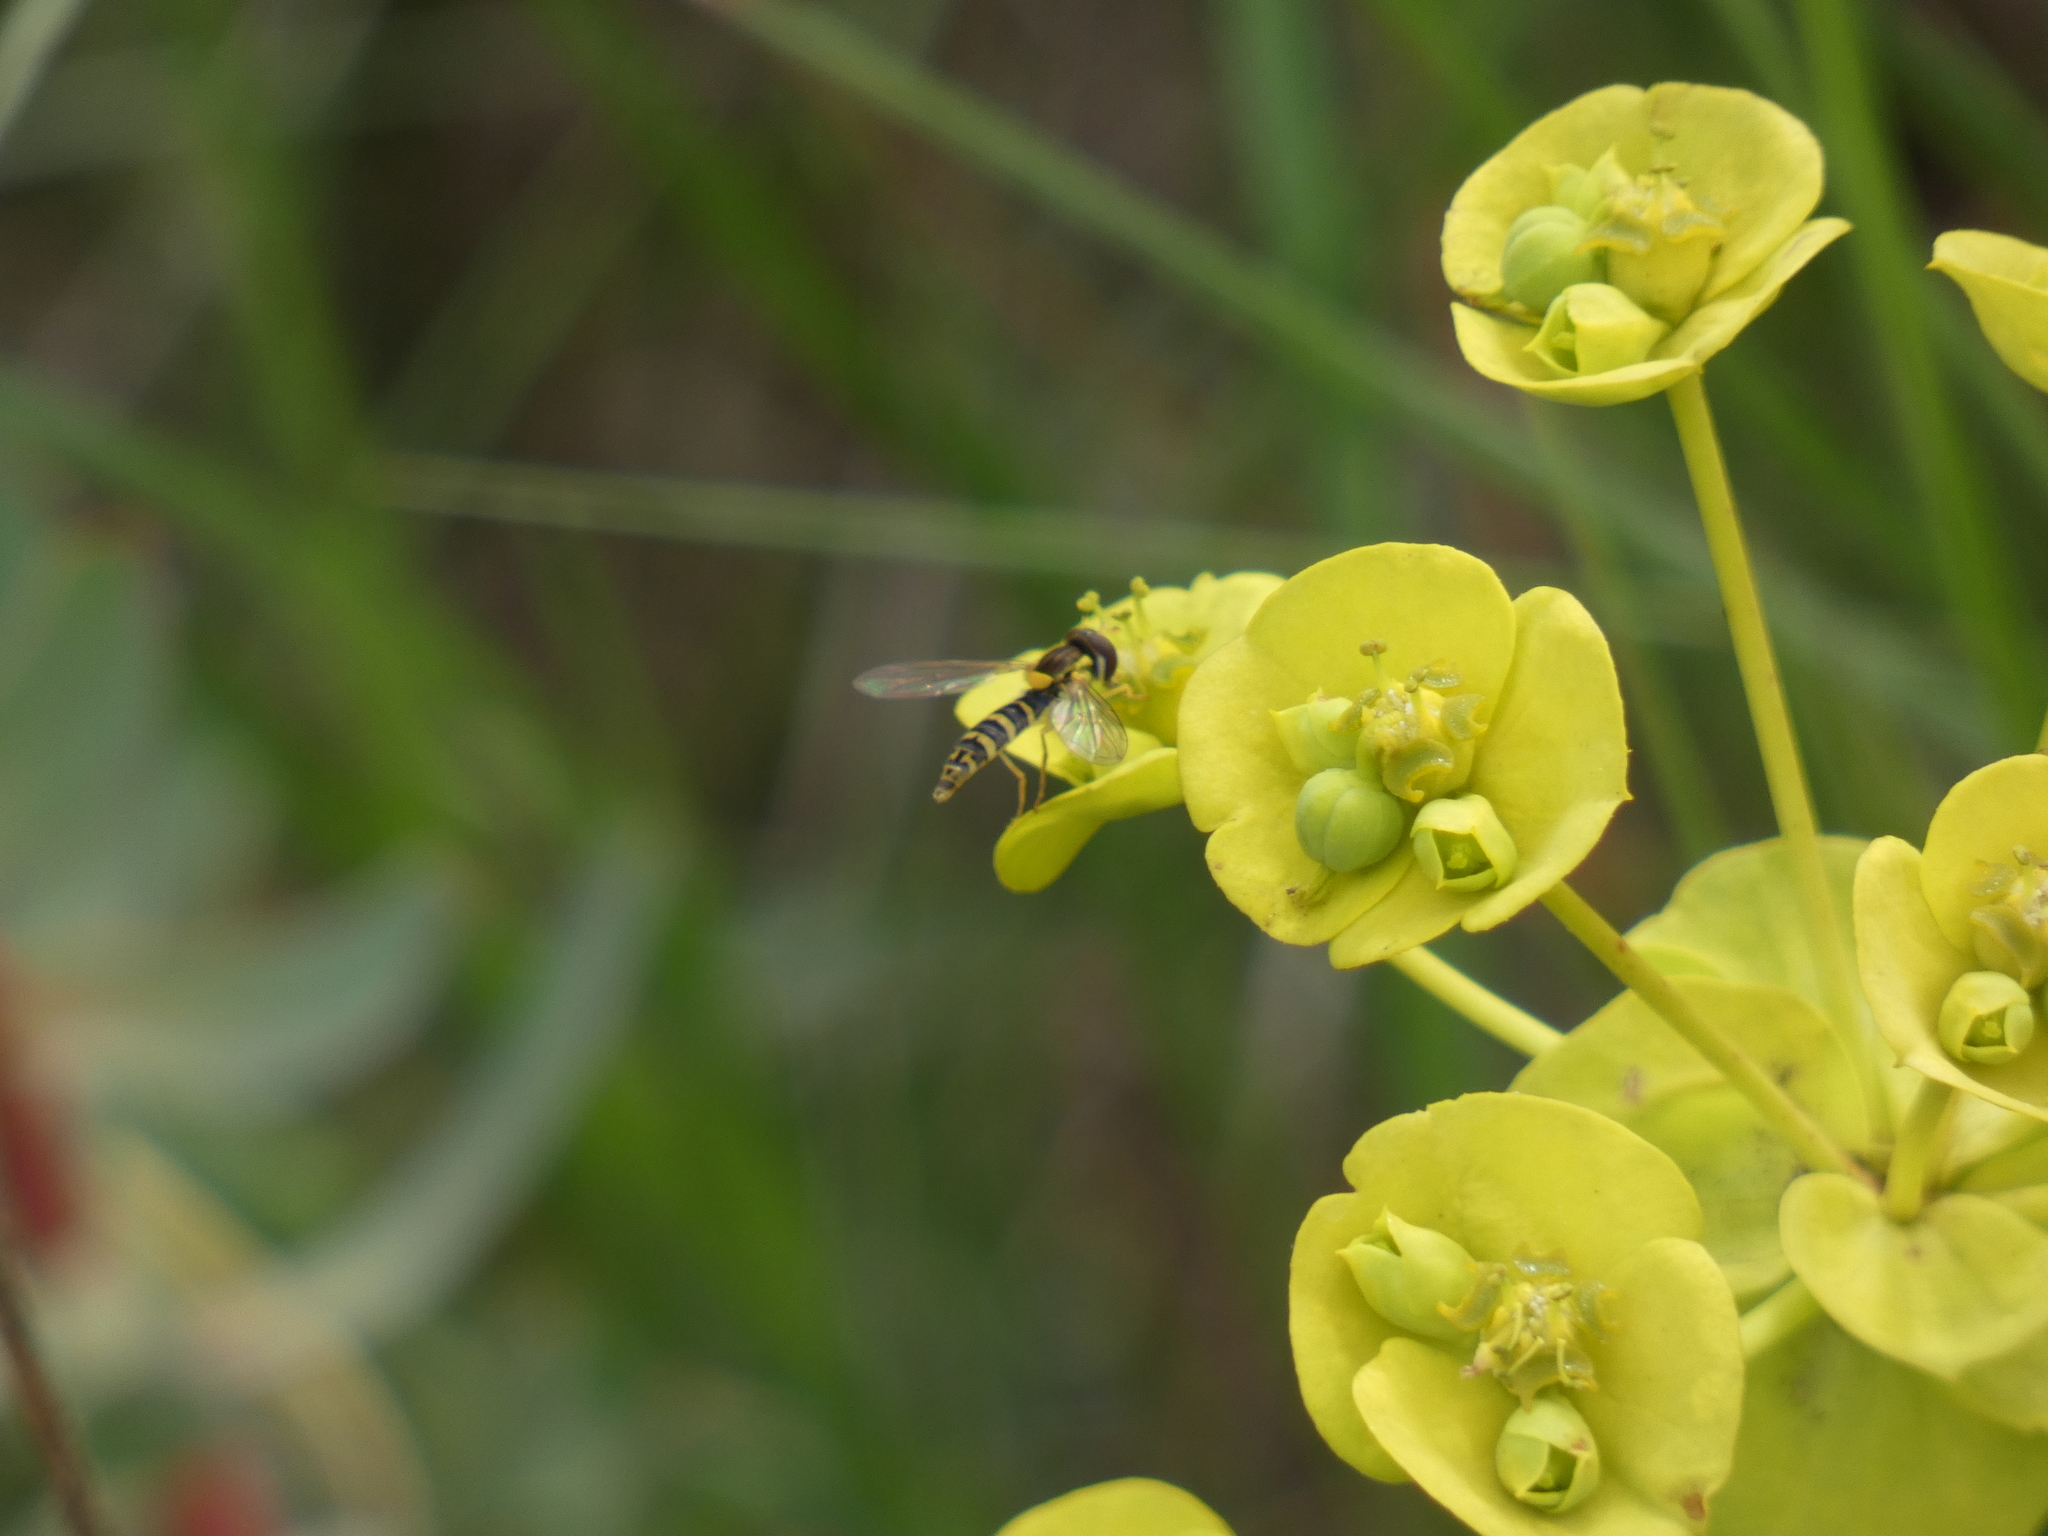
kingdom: Animalia
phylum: Arthropoda
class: Insecta
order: Diptera
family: Syrphidae
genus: Sphaerophoria
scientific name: Sphaerophoria
